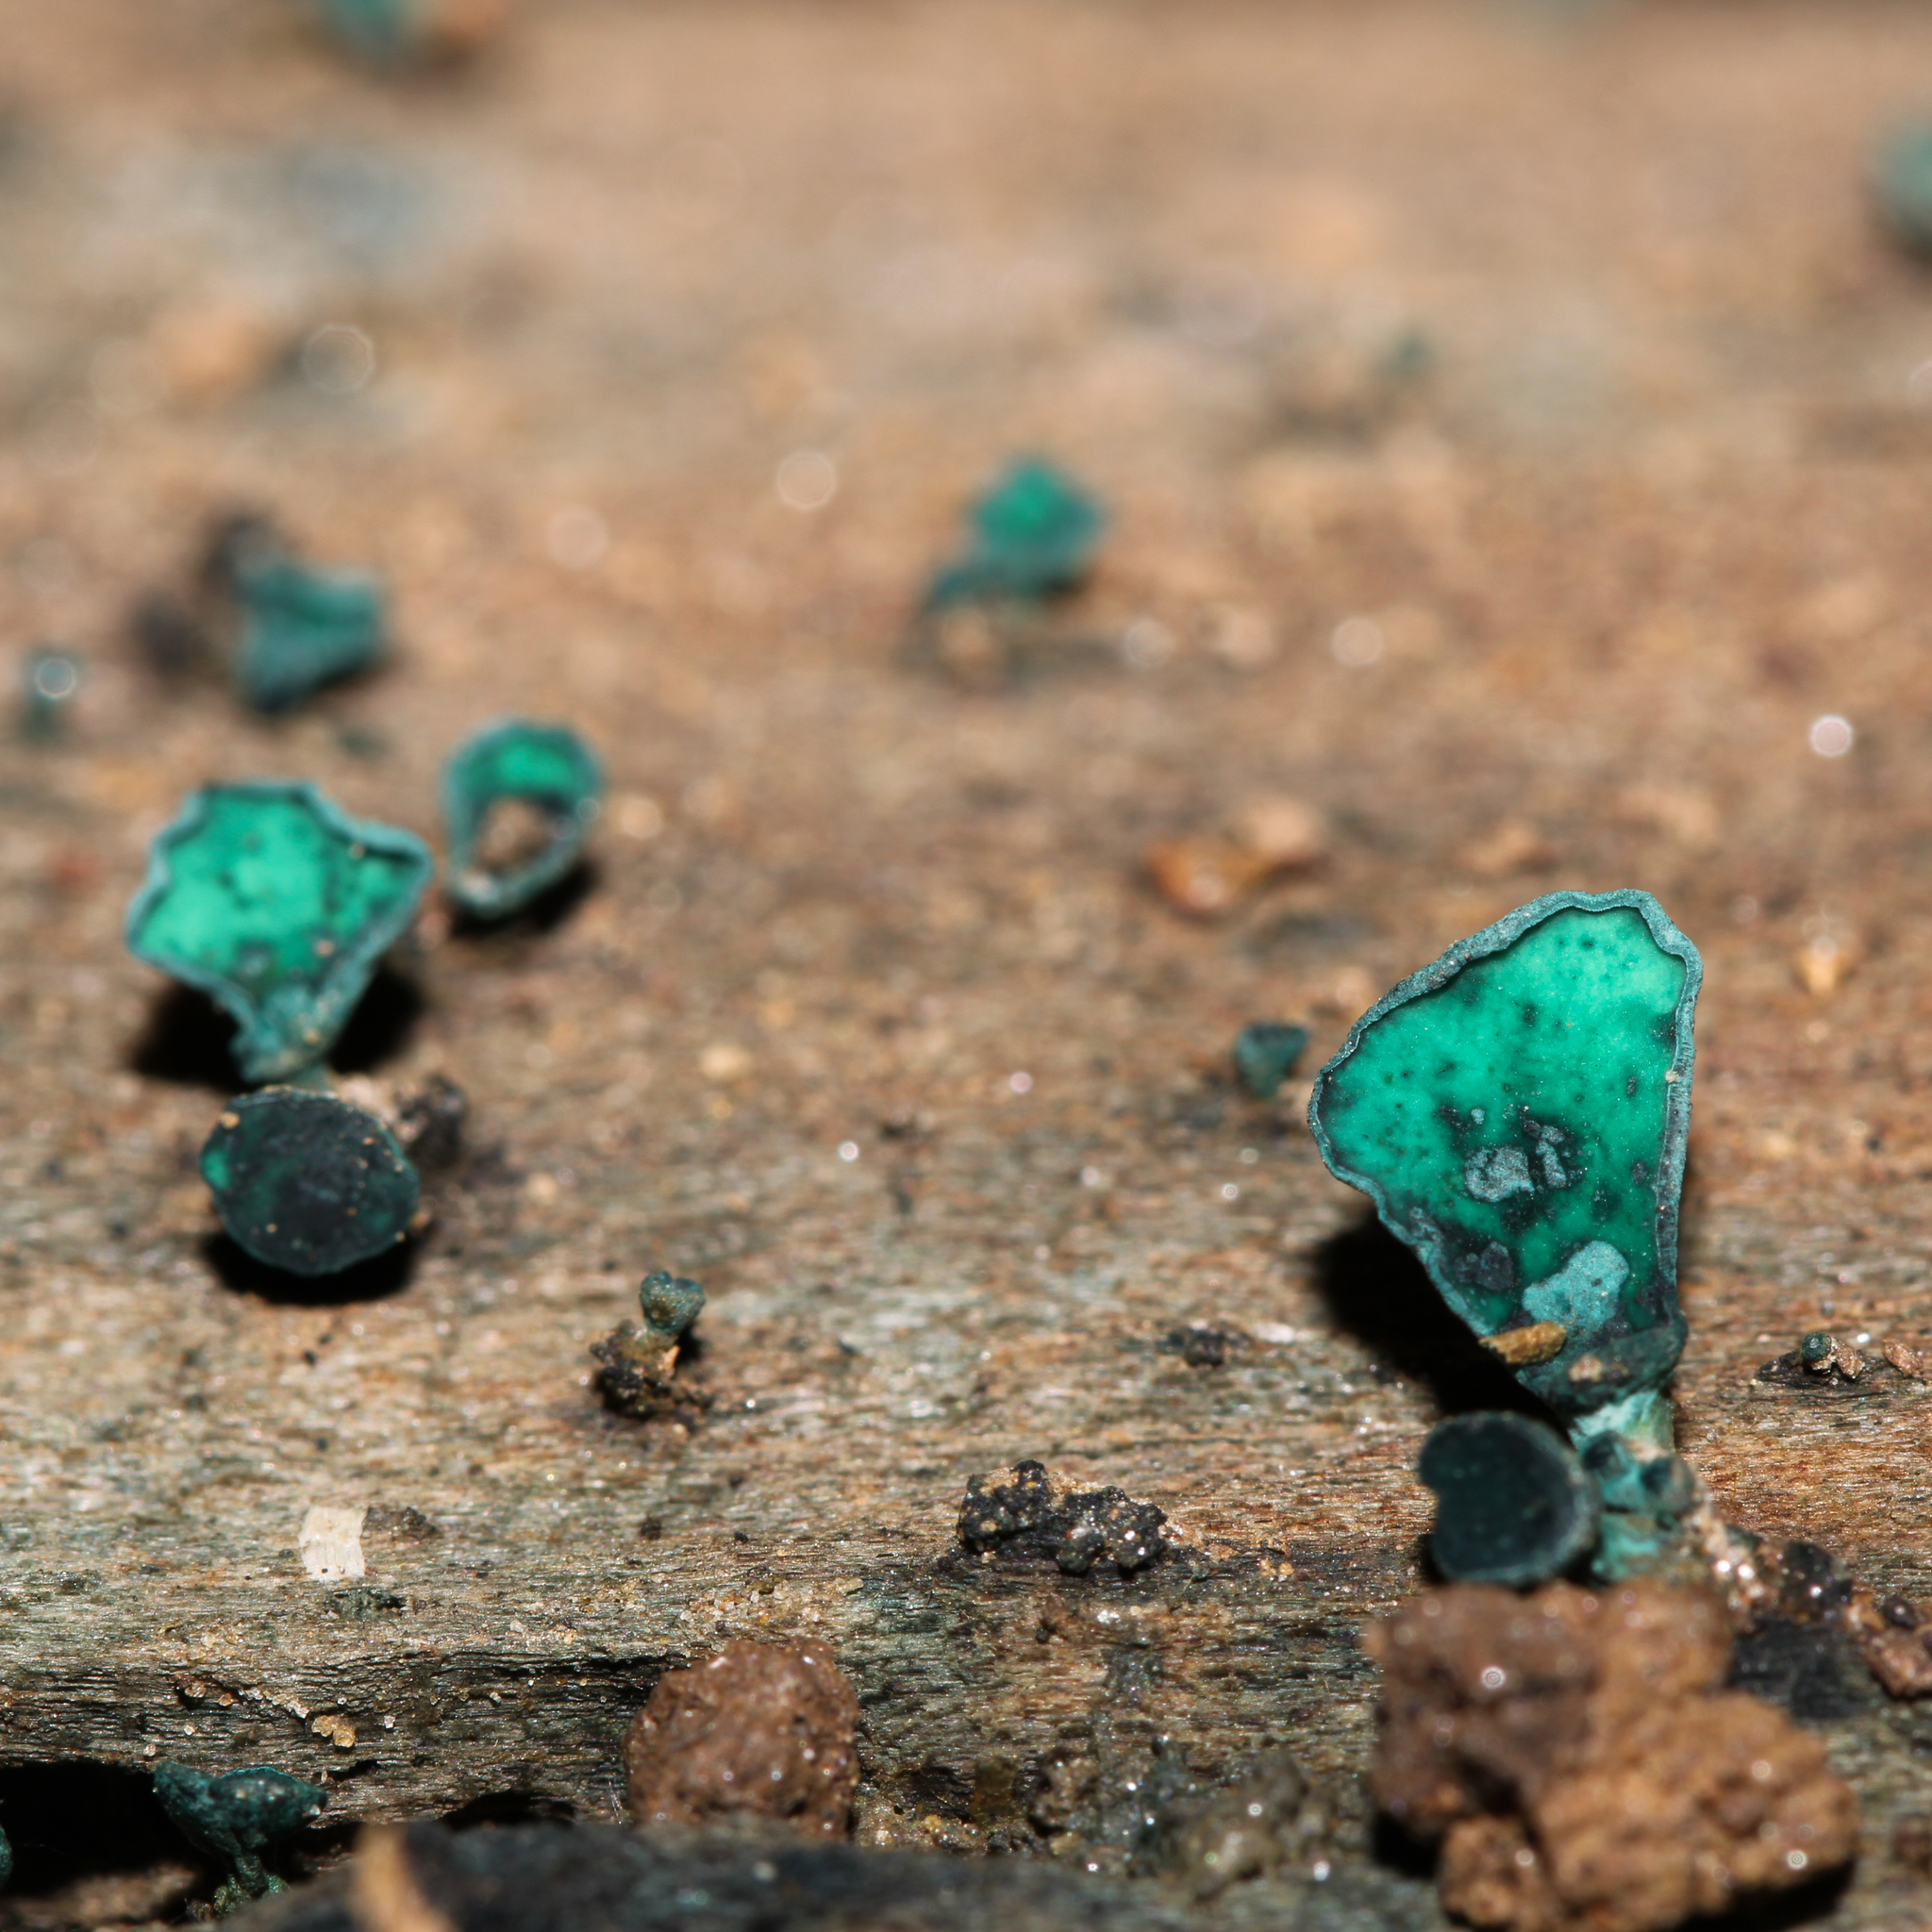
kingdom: Fungi
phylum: Ascomycota
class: Leotiomycetes
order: Helotiales
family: Chlorociboriaceae
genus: Chlorociboria
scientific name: Chlorociboria aeruginascens
